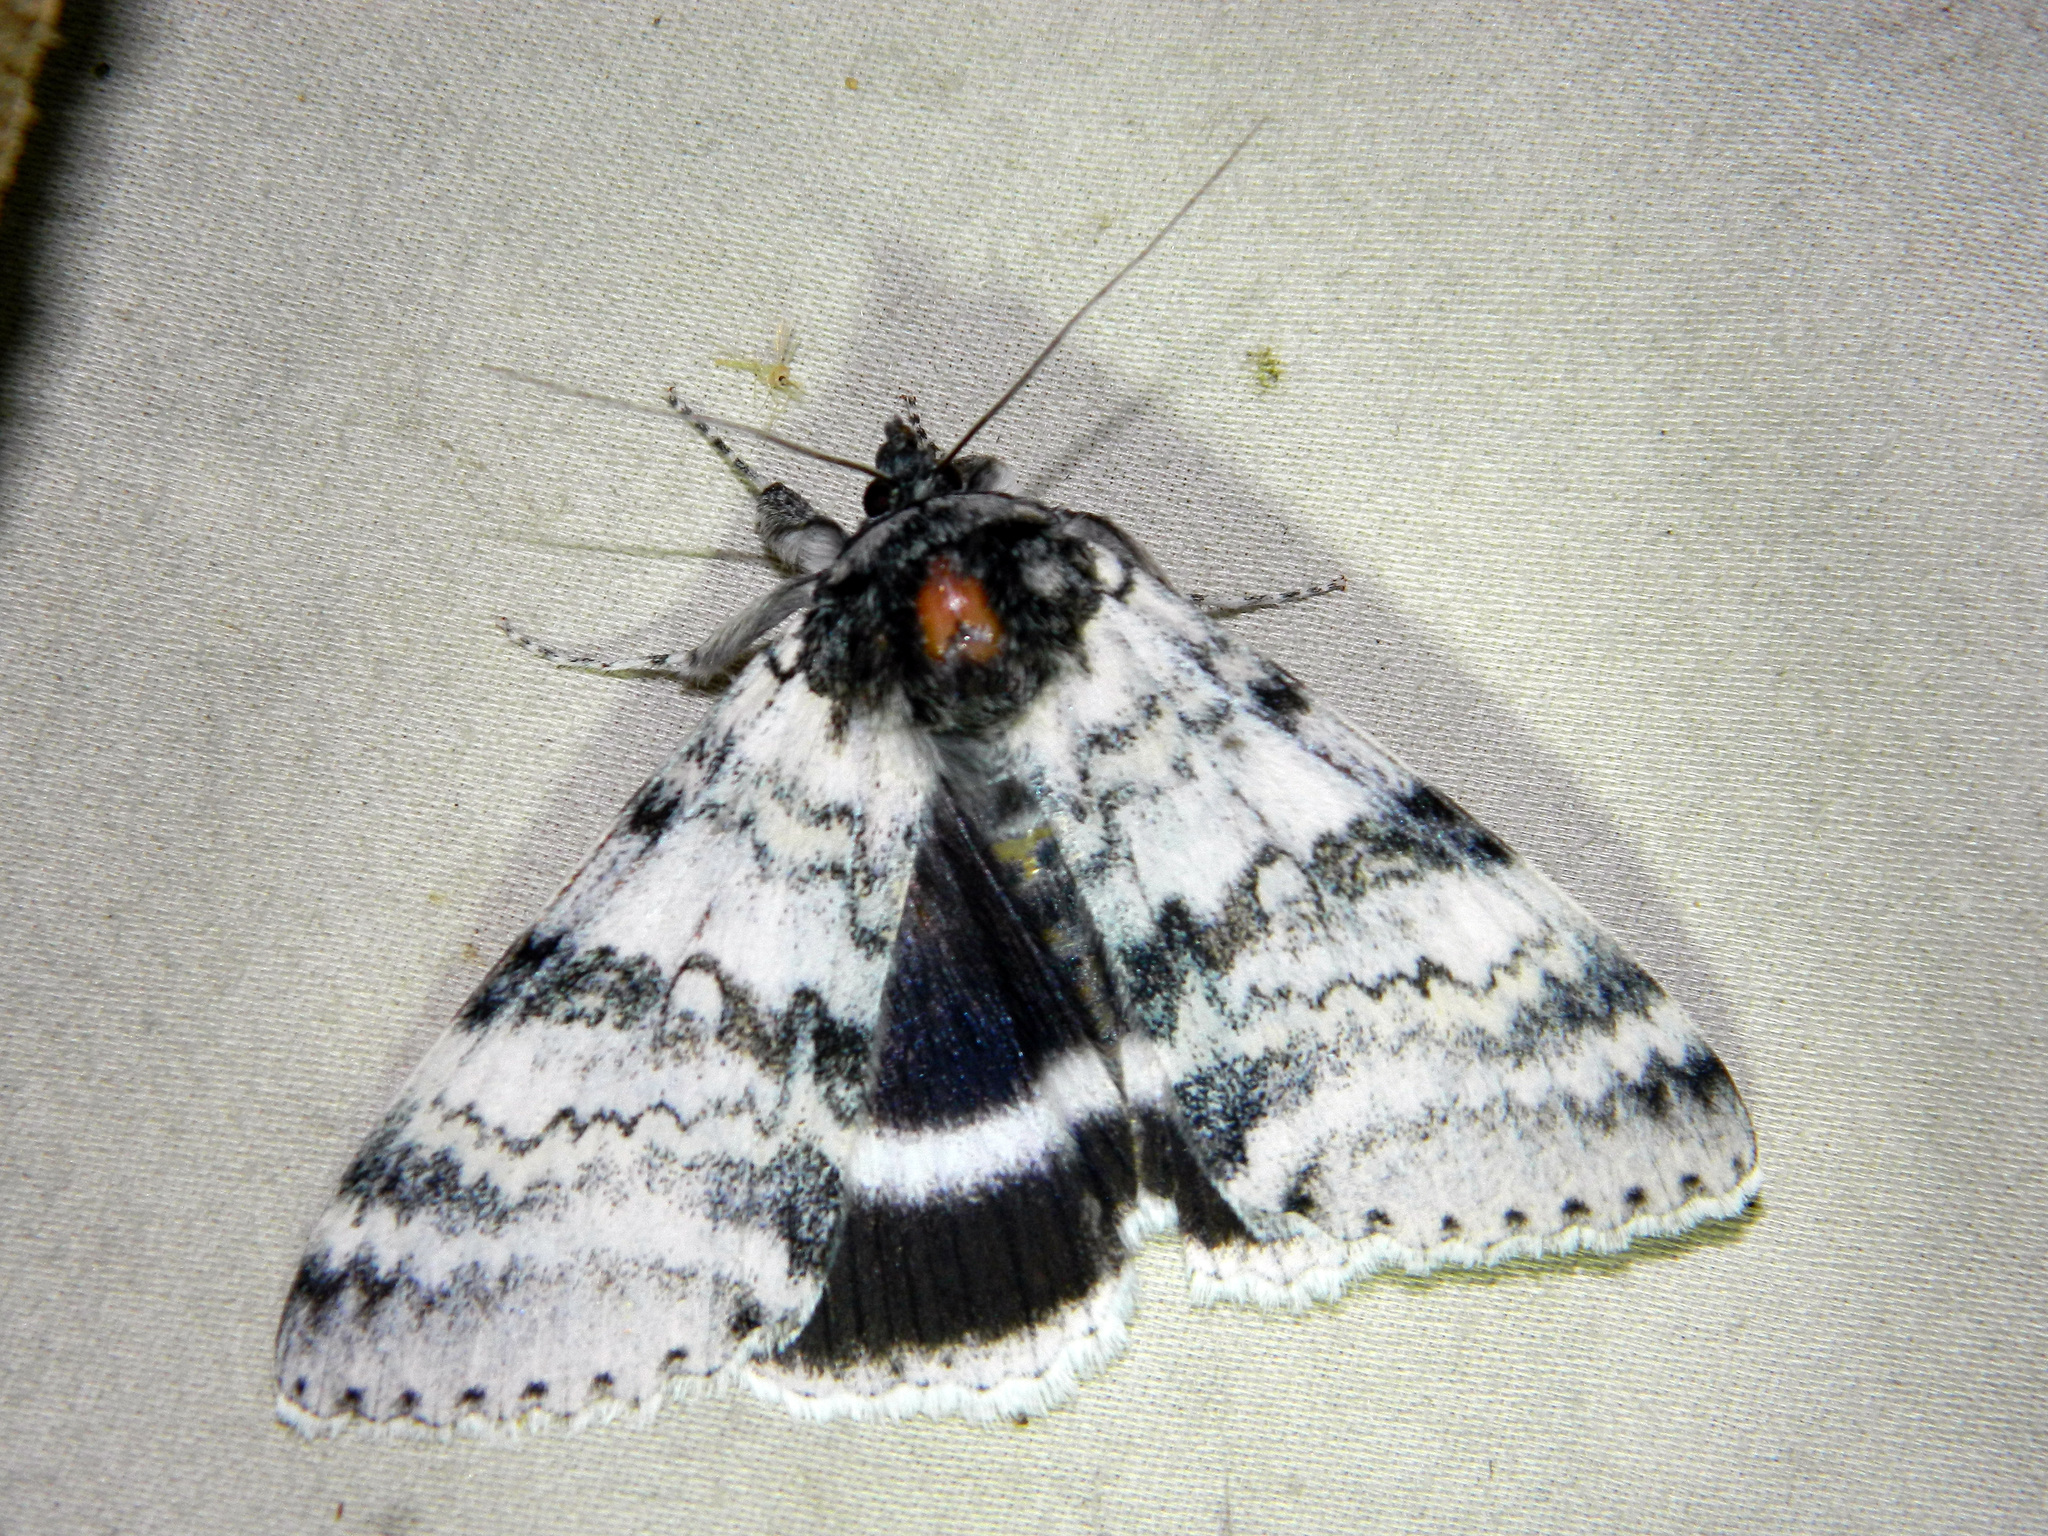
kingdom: Animalia
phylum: Arthropoda
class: Insecta
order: Lepidoptera
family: Erebidae
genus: Catocala
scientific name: Catocala relicta
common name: White underwing
